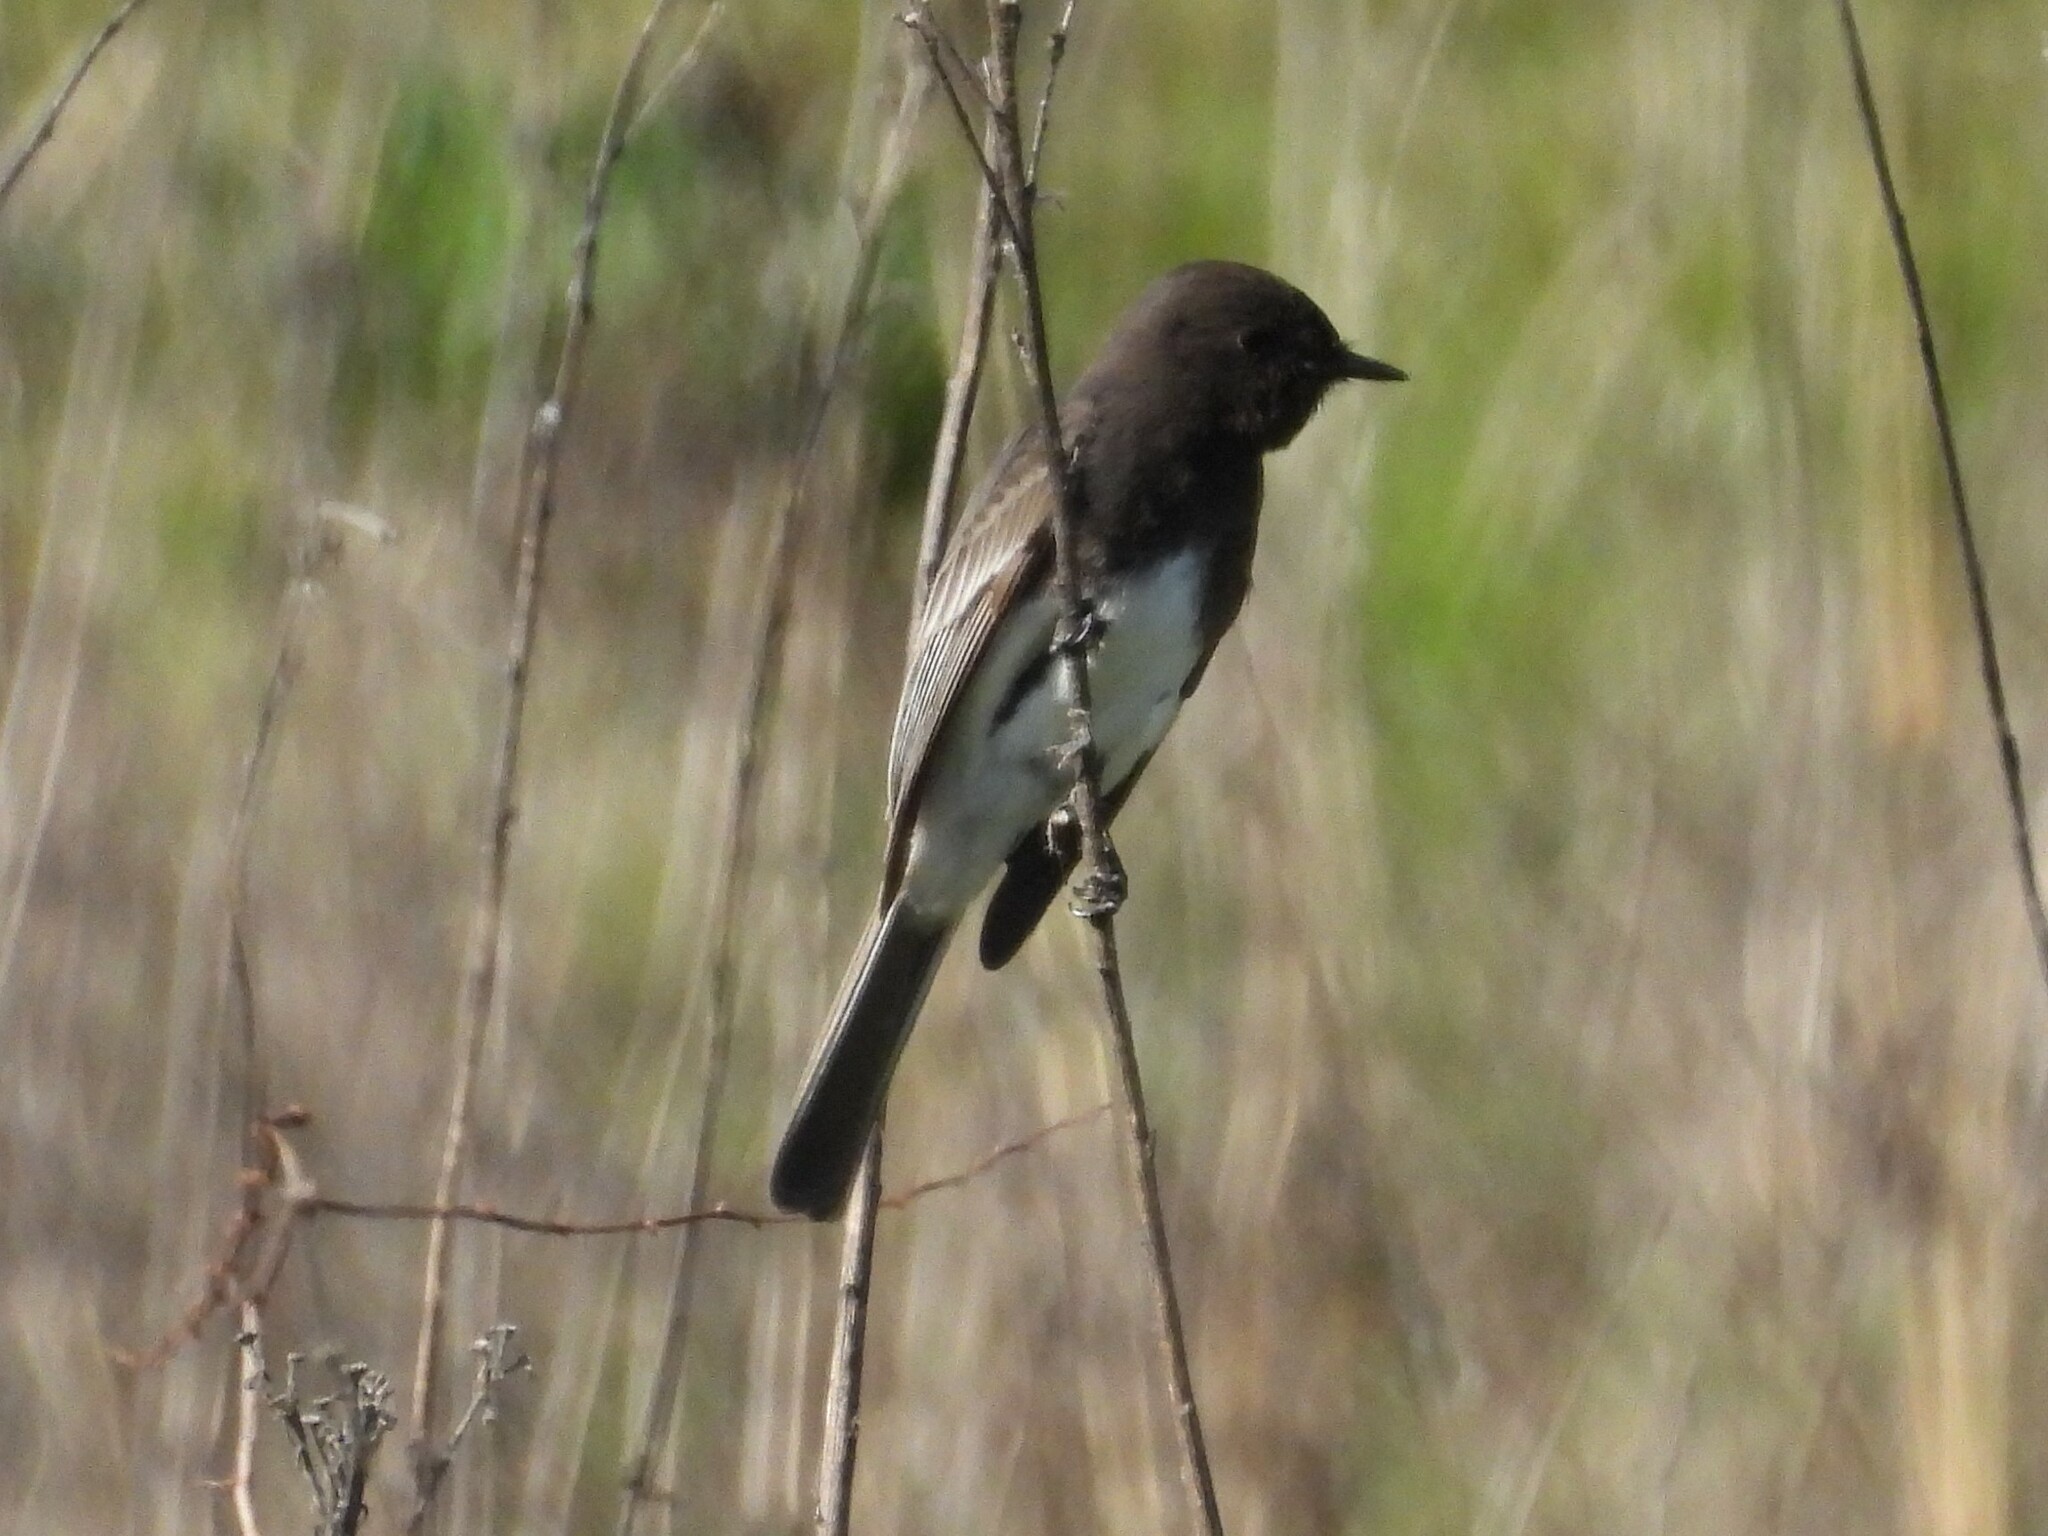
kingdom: Animalia
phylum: Chordata
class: Aves
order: Passeriformes
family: Tyrannidae
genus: Sayornis
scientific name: Sayornis nigricans
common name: Black phoebe
